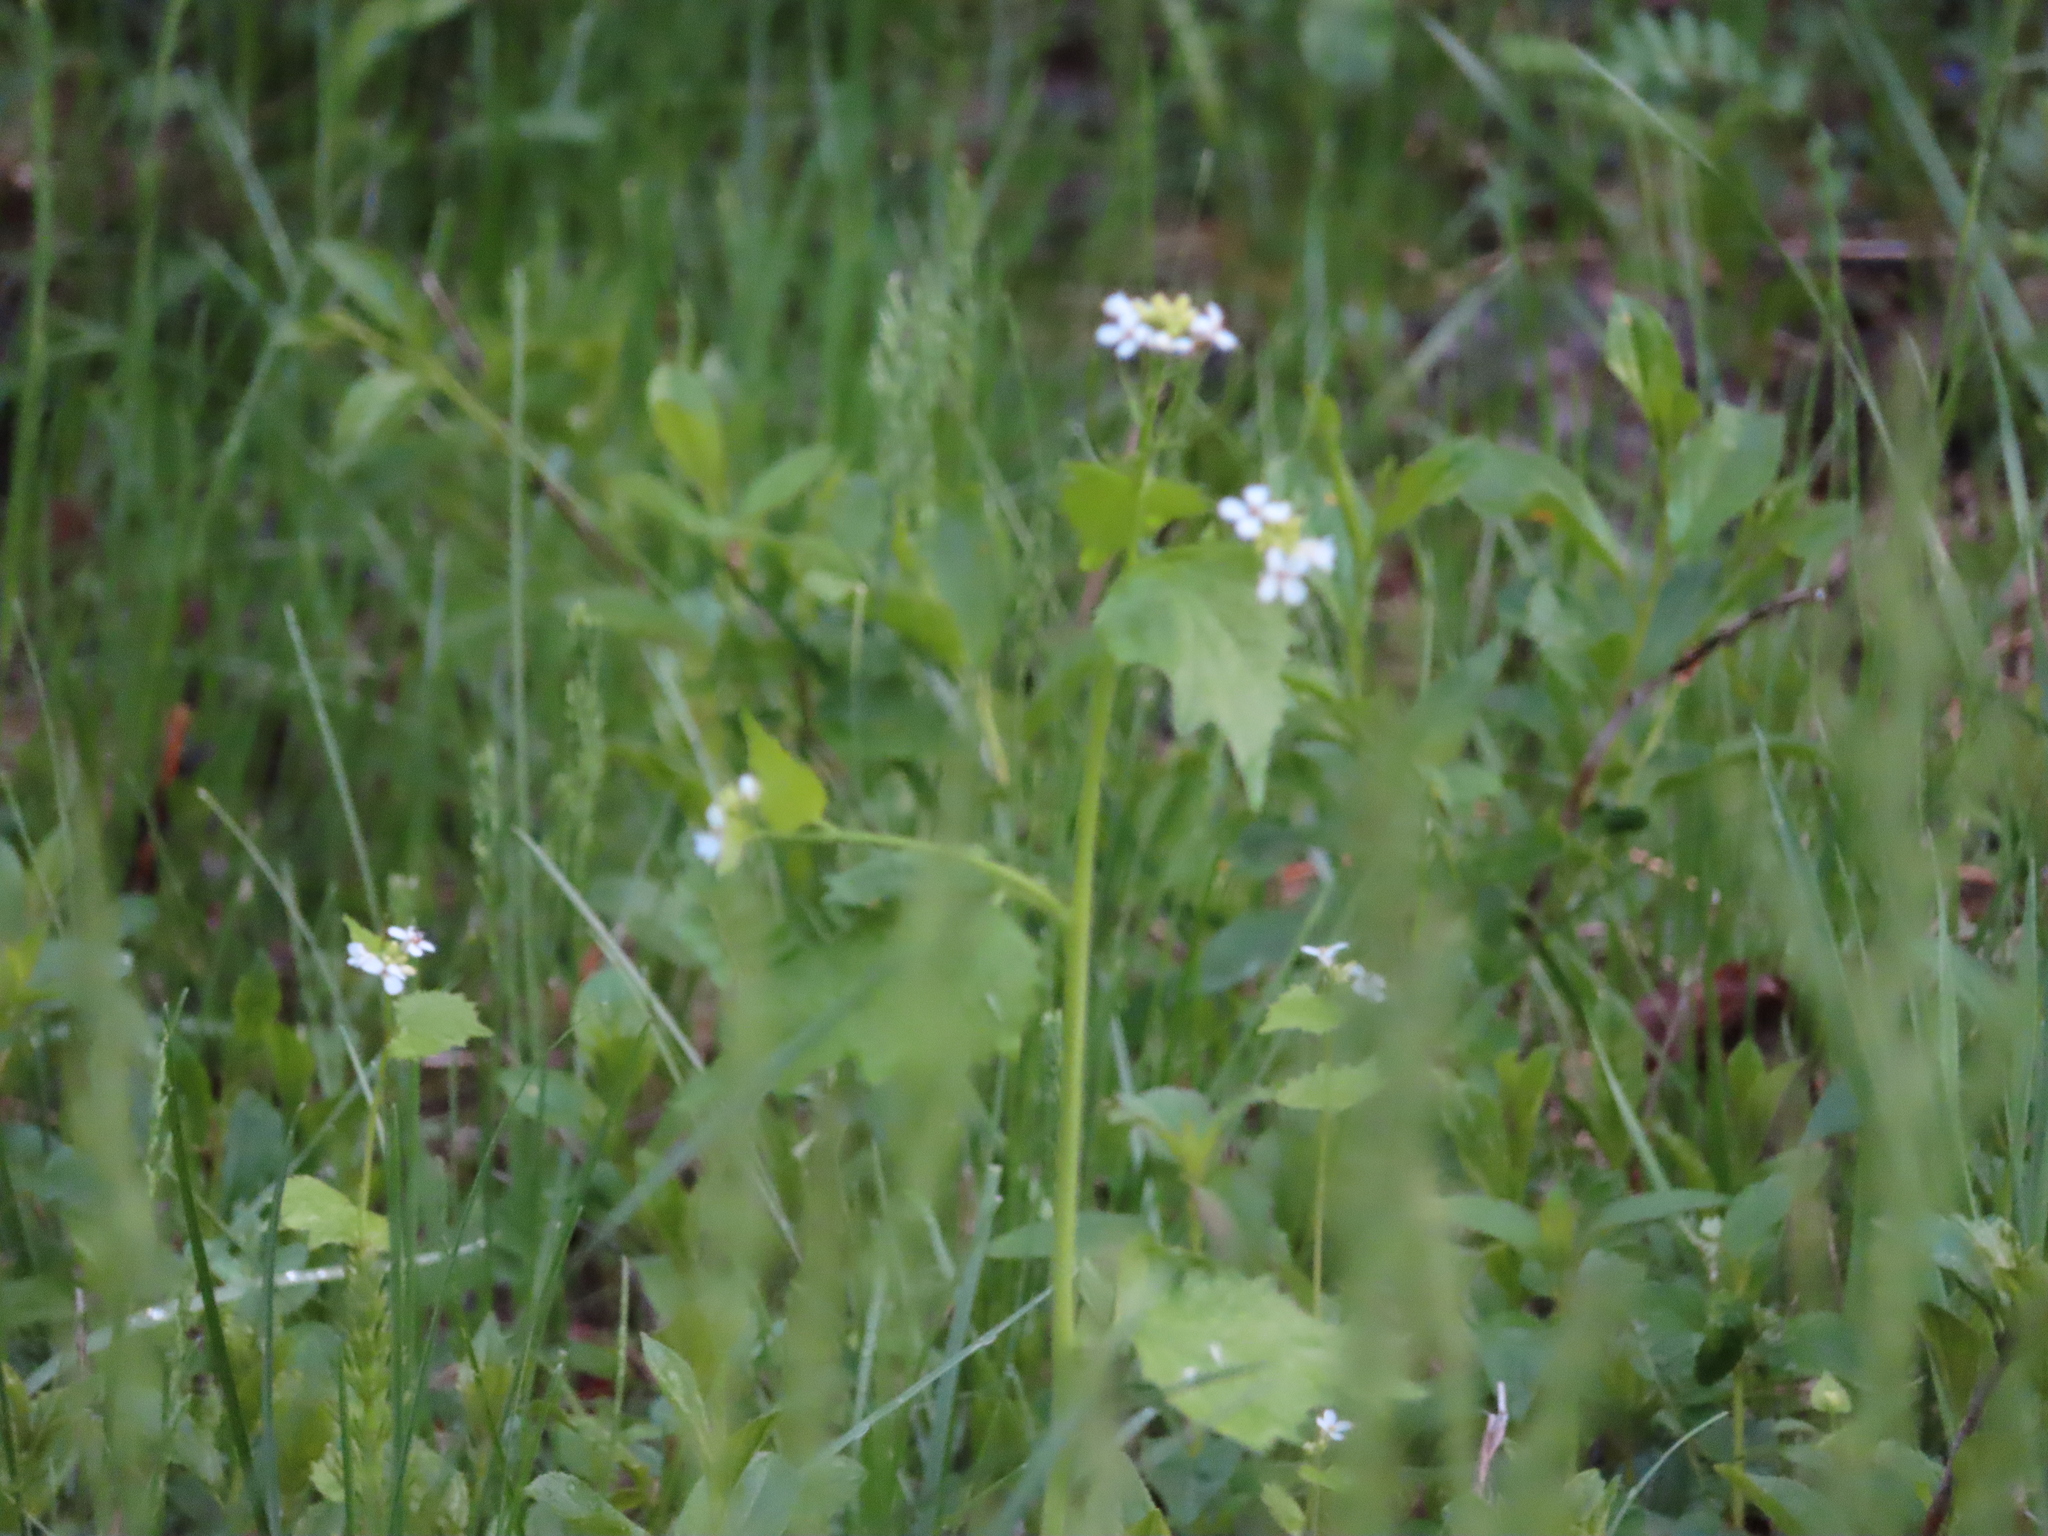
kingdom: Plantae
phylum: Tracheophyta
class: Magnoliopsida
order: Brassicales
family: Brassicaceae
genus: Alliaria
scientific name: Alliaria petiolata
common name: Garlic mustard
